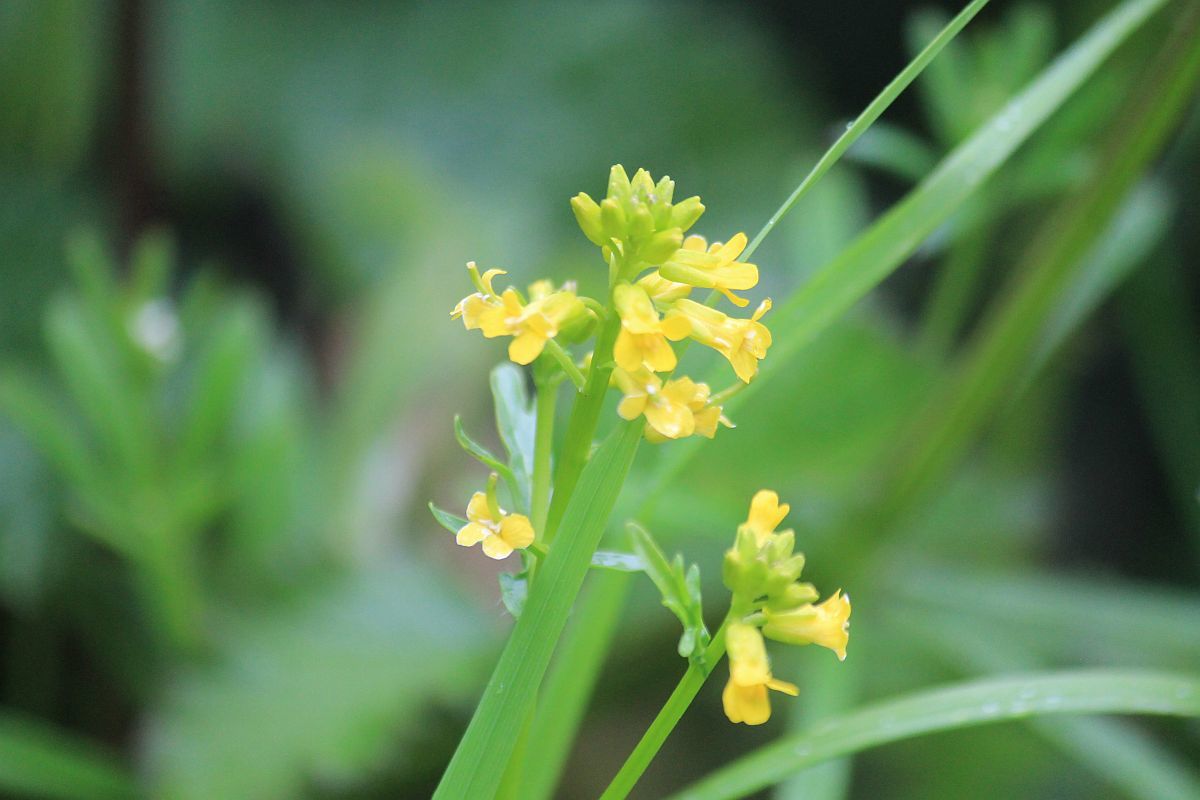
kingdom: Plantae
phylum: Tracheophyta
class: Magnoliopsida
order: Brassicales
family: Brassicaceae
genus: Barbarea
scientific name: Barbarea verna
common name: American cress
